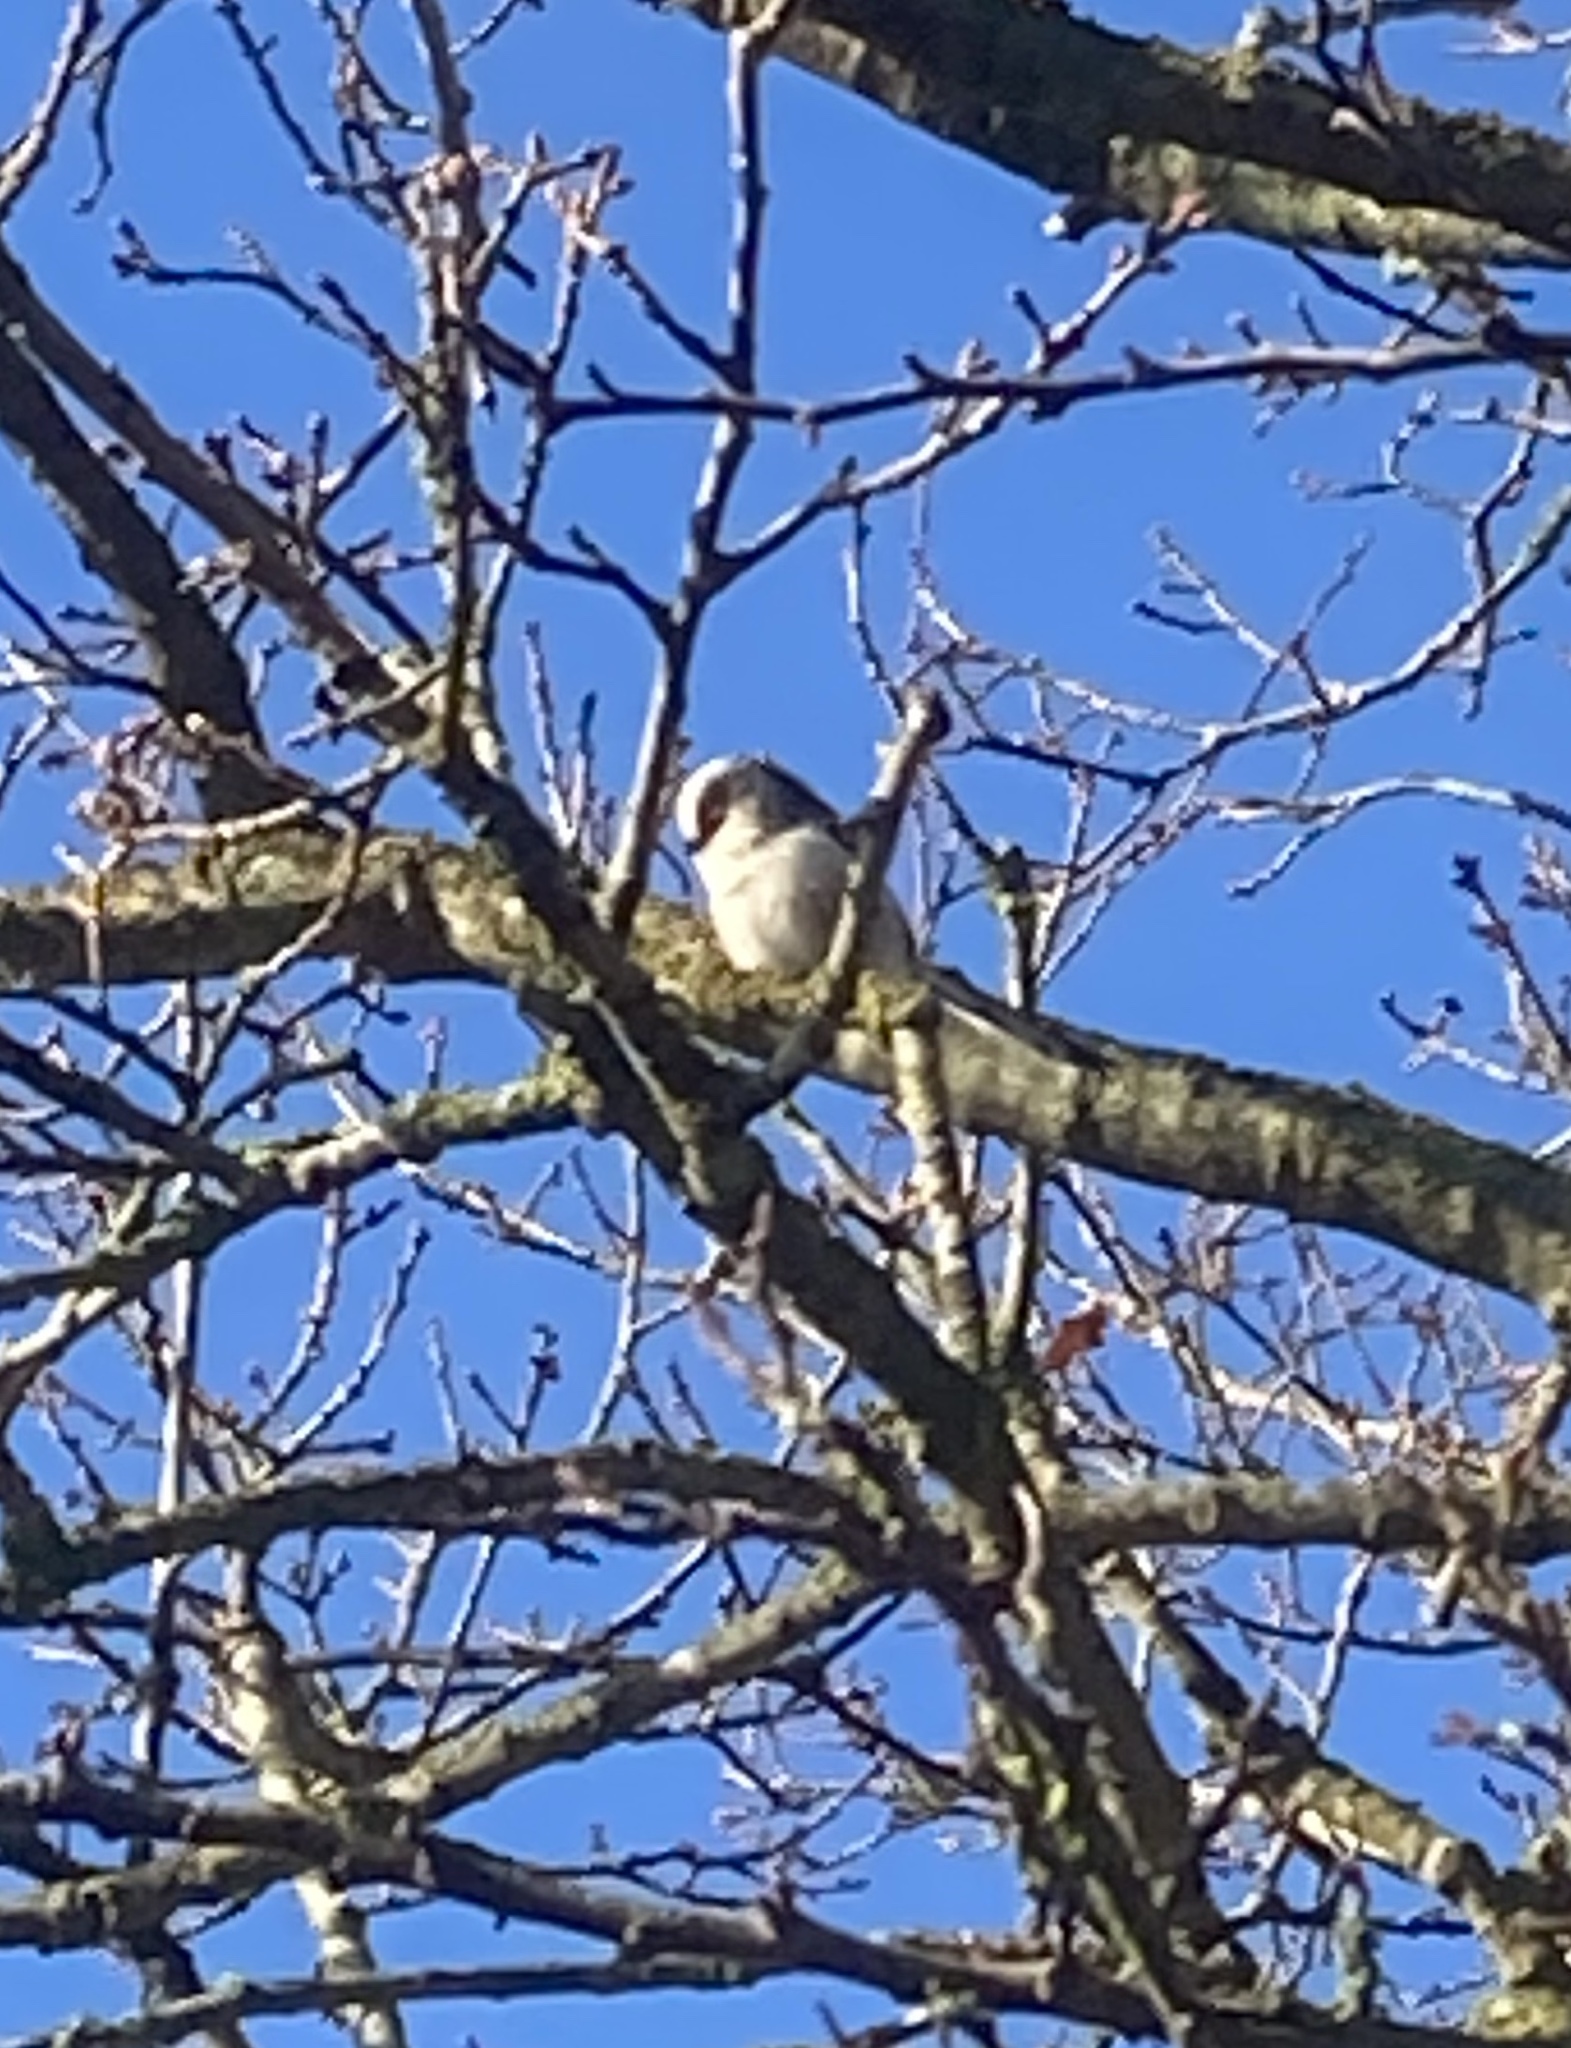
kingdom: Animalia
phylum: Chordata
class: Aves
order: Passeriformes
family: Aegithalidae
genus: Aegithalos
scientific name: Aegithalos caudatus
